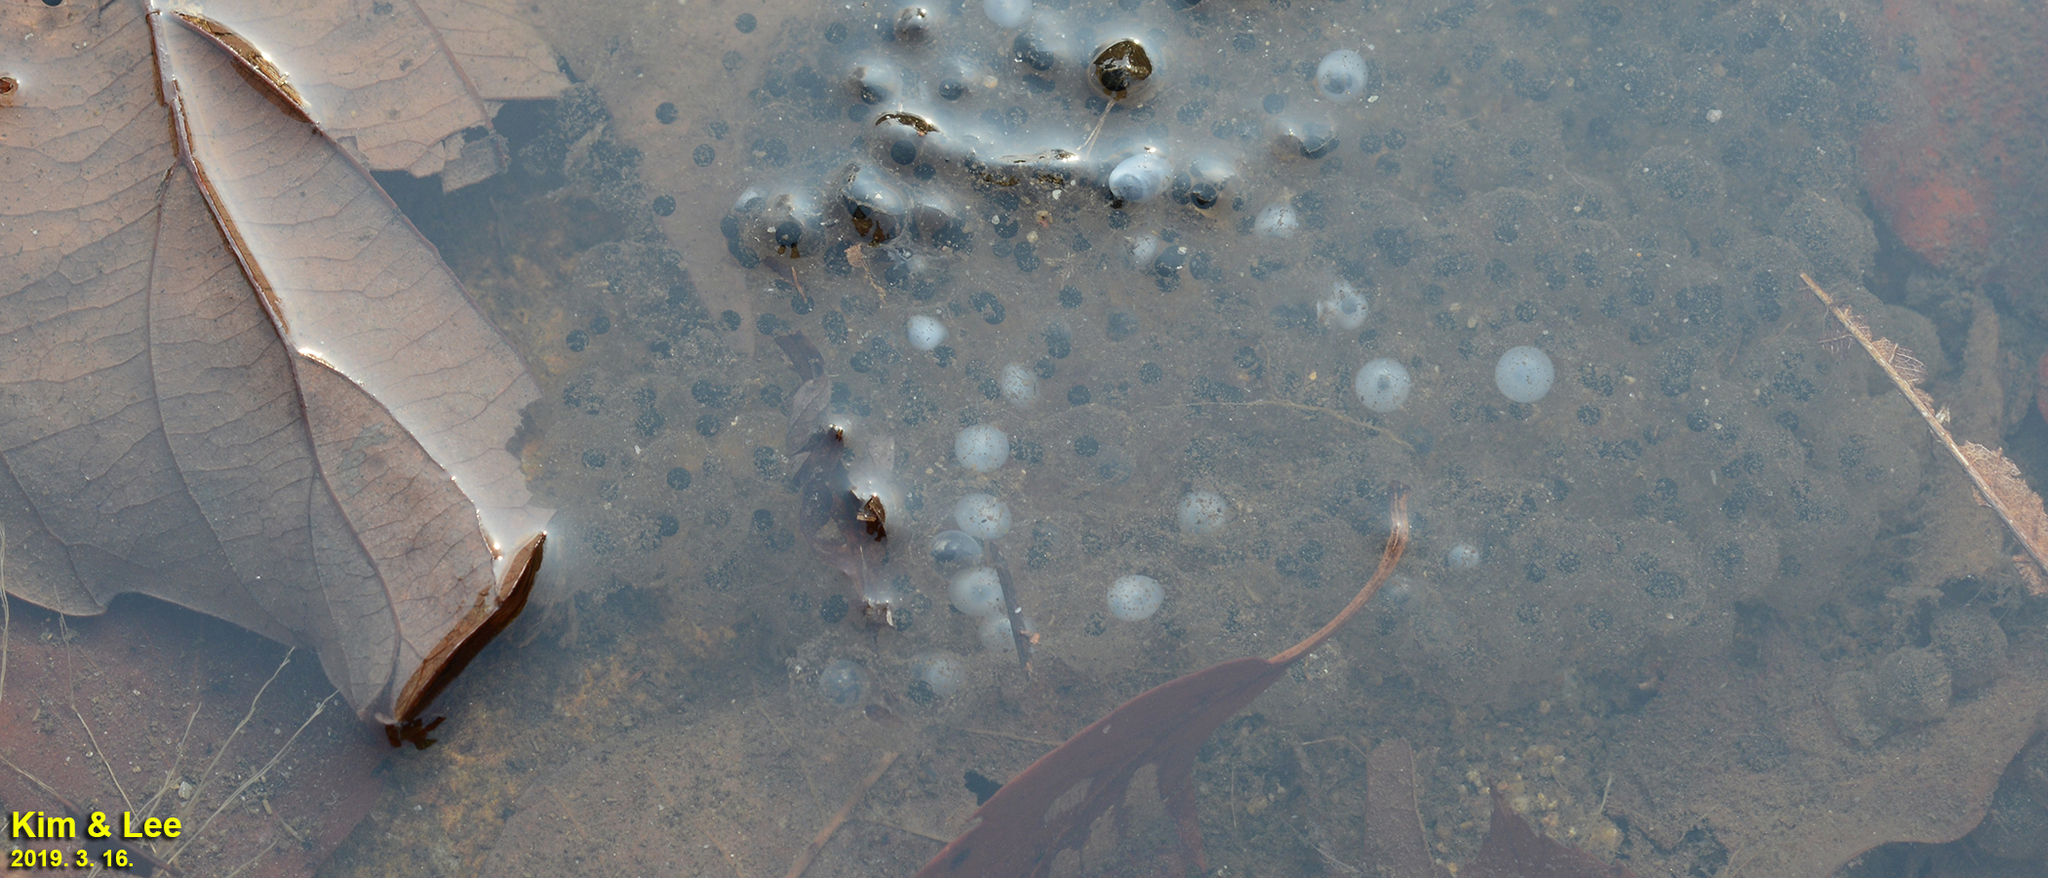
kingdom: Animalia
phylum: Chordata
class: Amphibia
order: Anura
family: Ranidae
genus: Rana
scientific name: Rana huanrenensis
